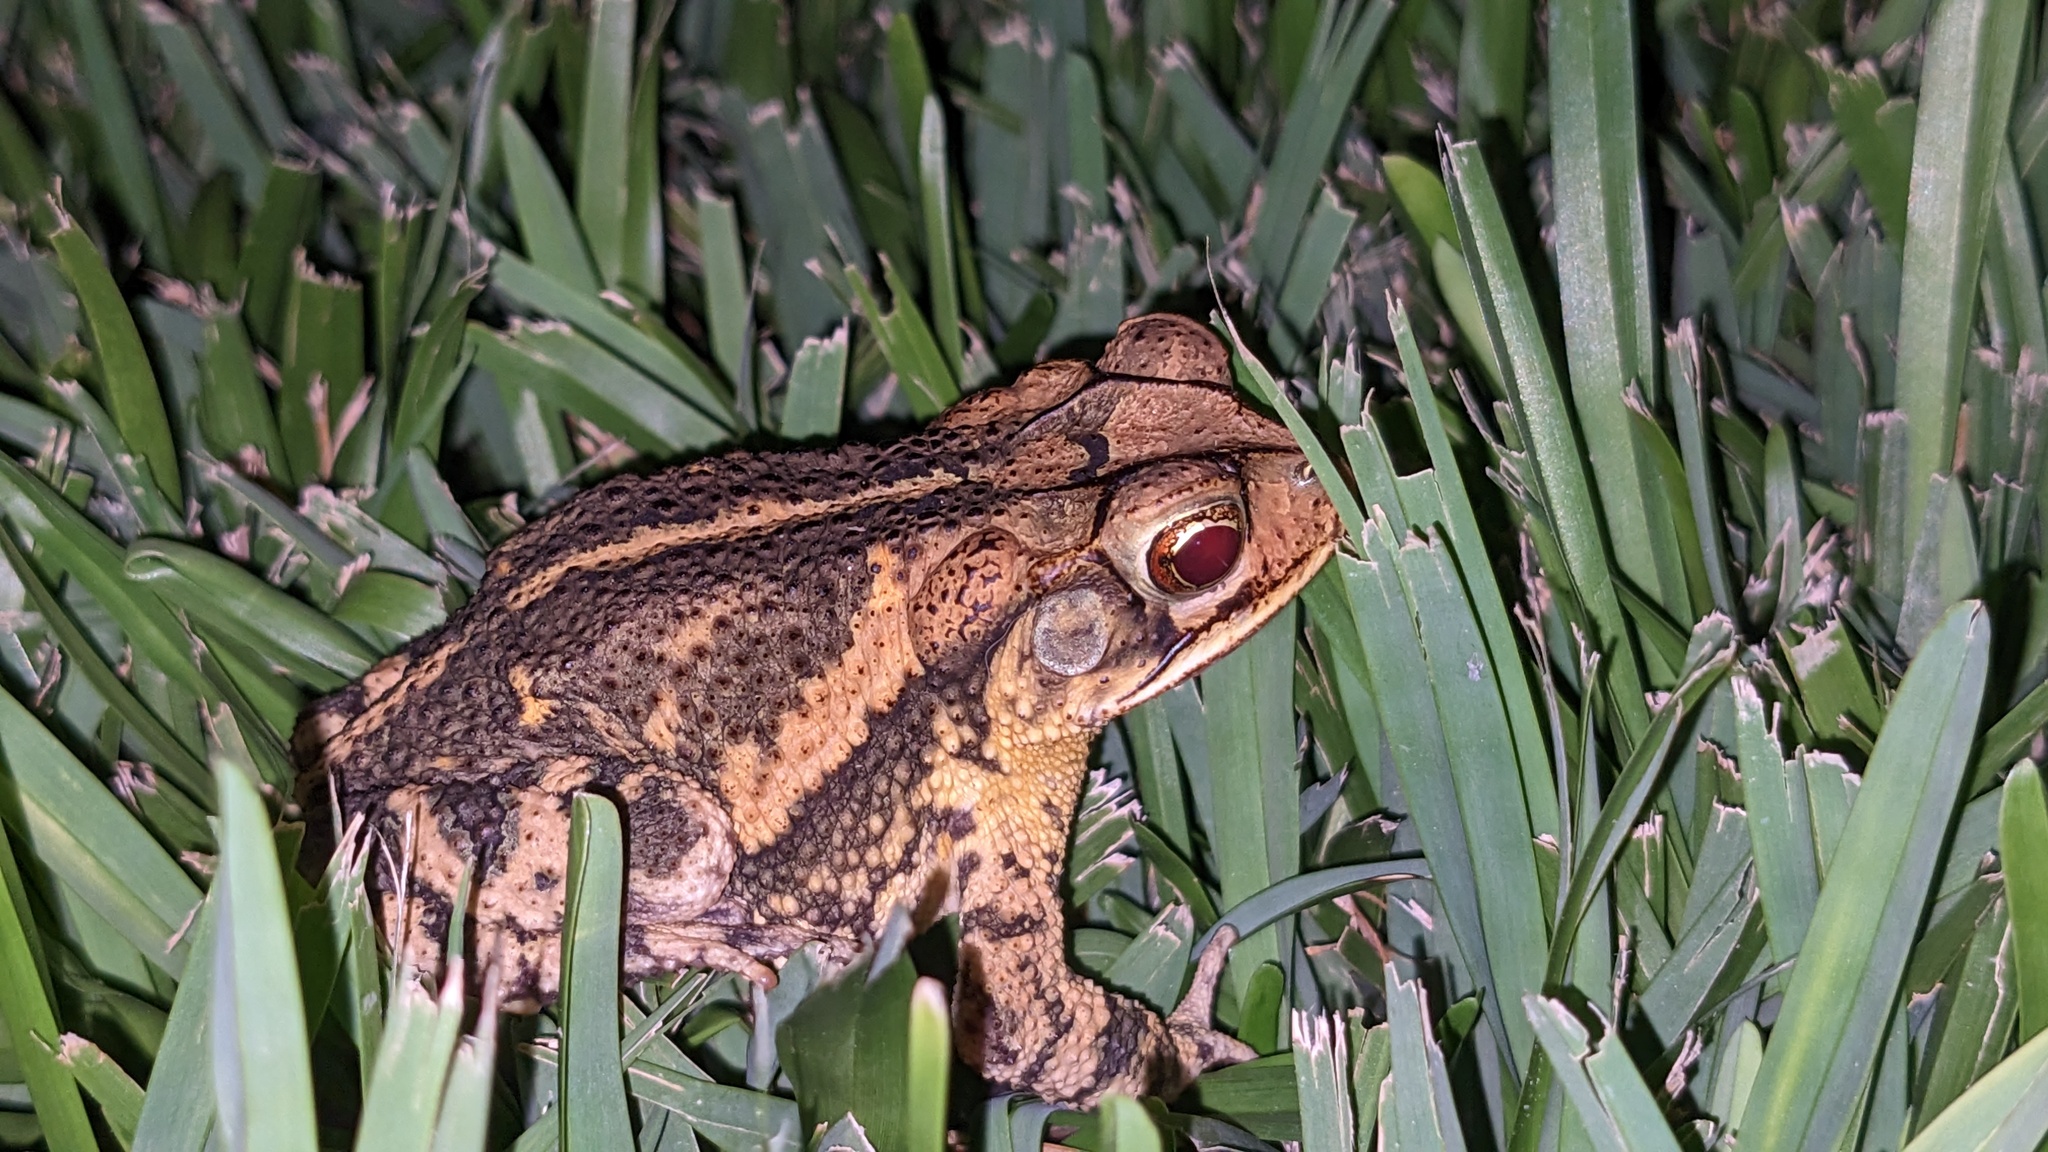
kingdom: Animalia
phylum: Chordata
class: Amphibia
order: Anura
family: Bufonidae
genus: Incilius
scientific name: Incilius nebulifer
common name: Gulf coast toad
